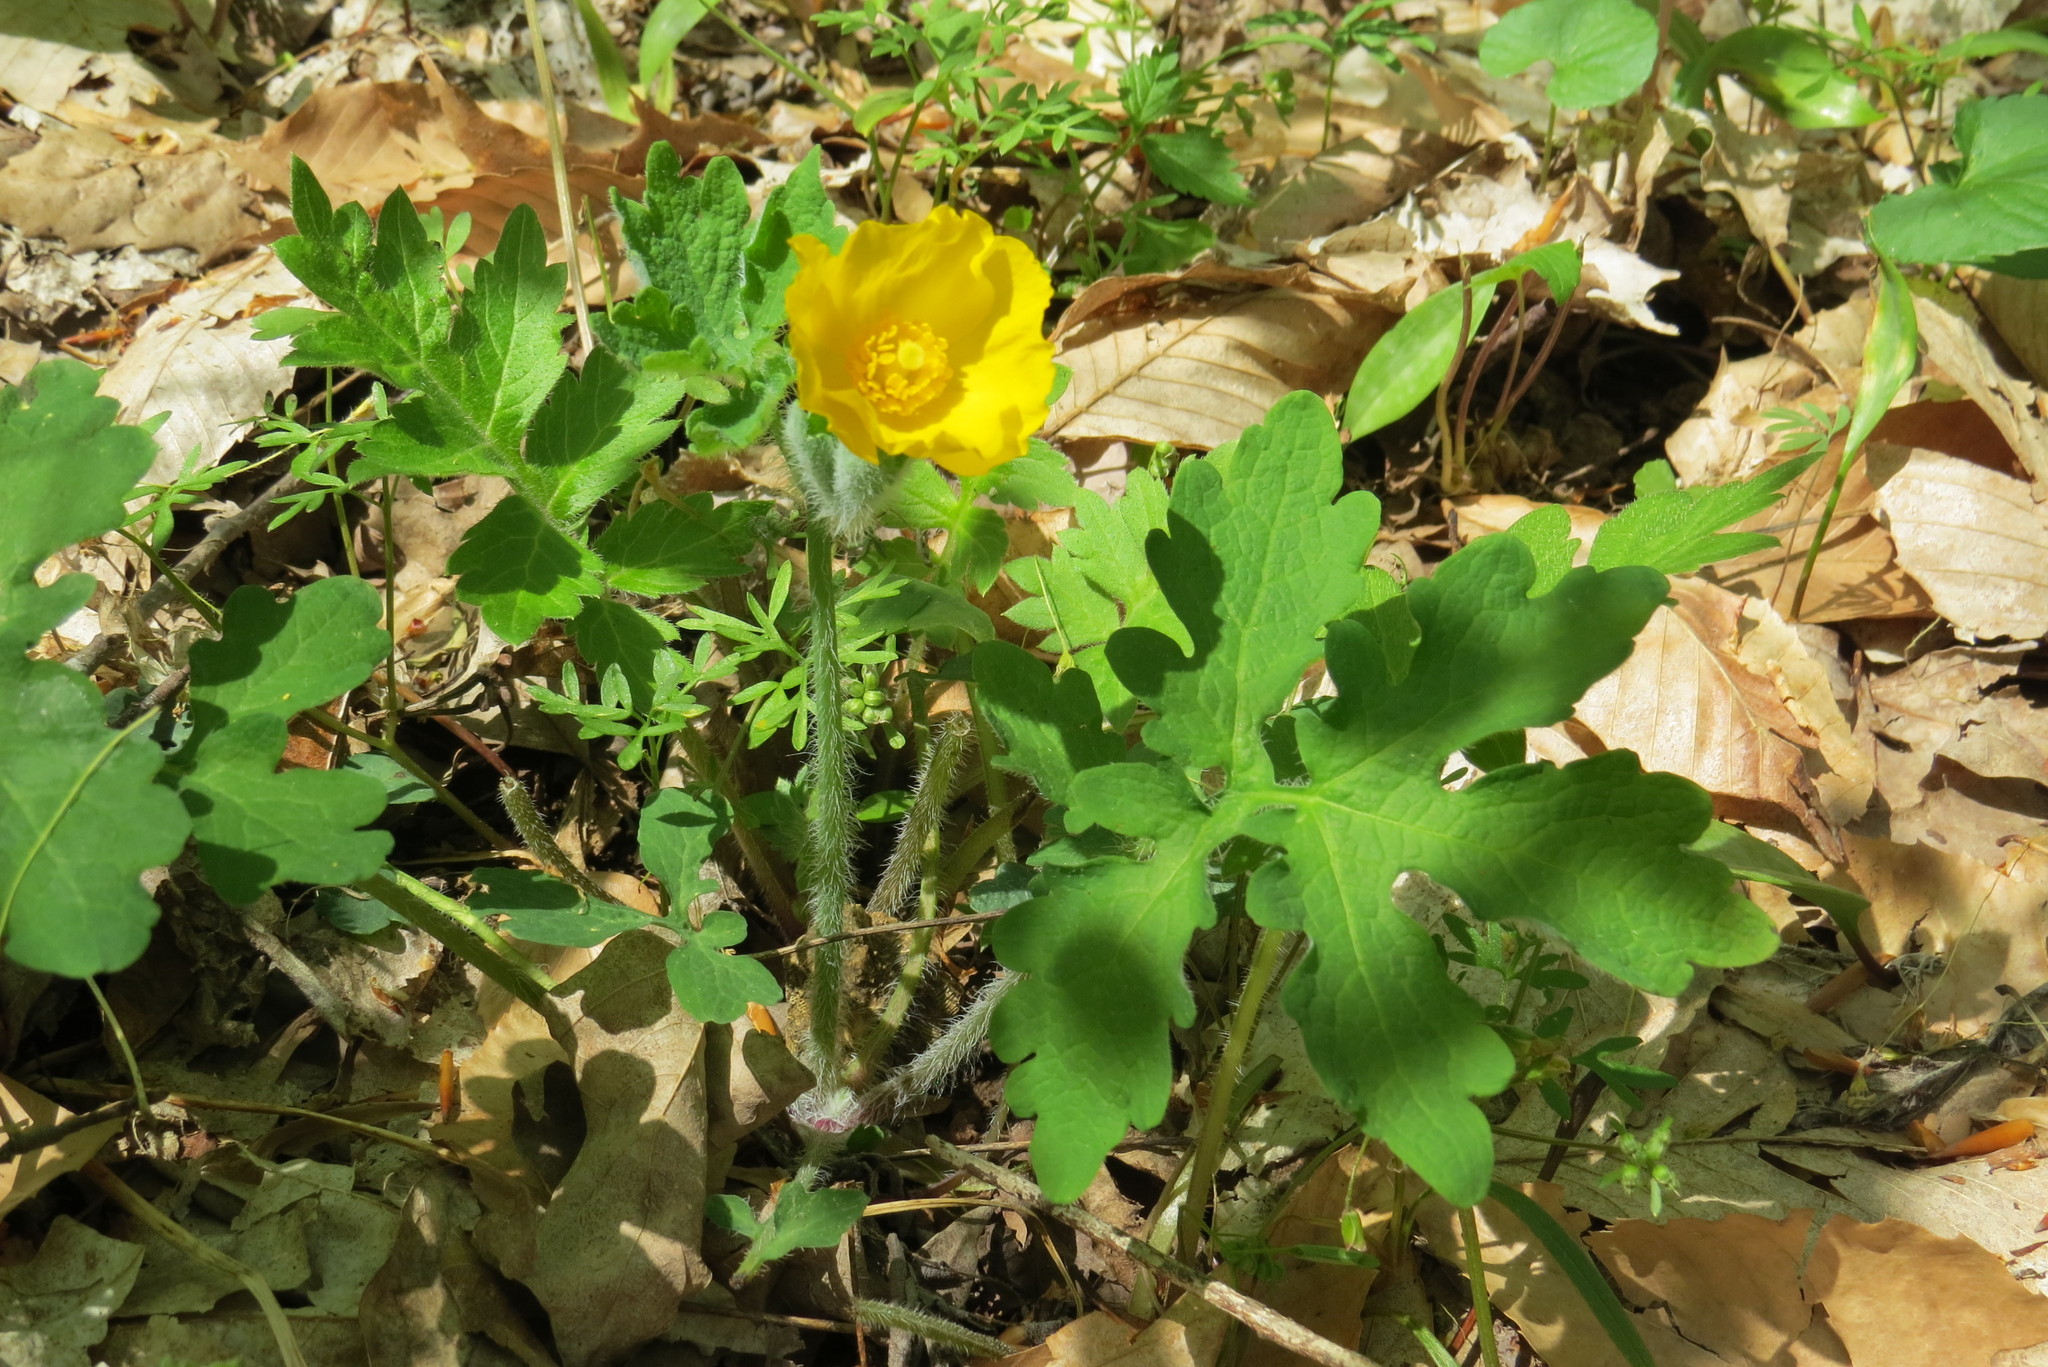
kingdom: Plantae
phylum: Tracheophyta
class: Magnoliopsida
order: Ranunculales
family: Papaveraceae
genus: Stylophorum
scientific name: Stylophorum diphyllum
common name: Celandine poppy
